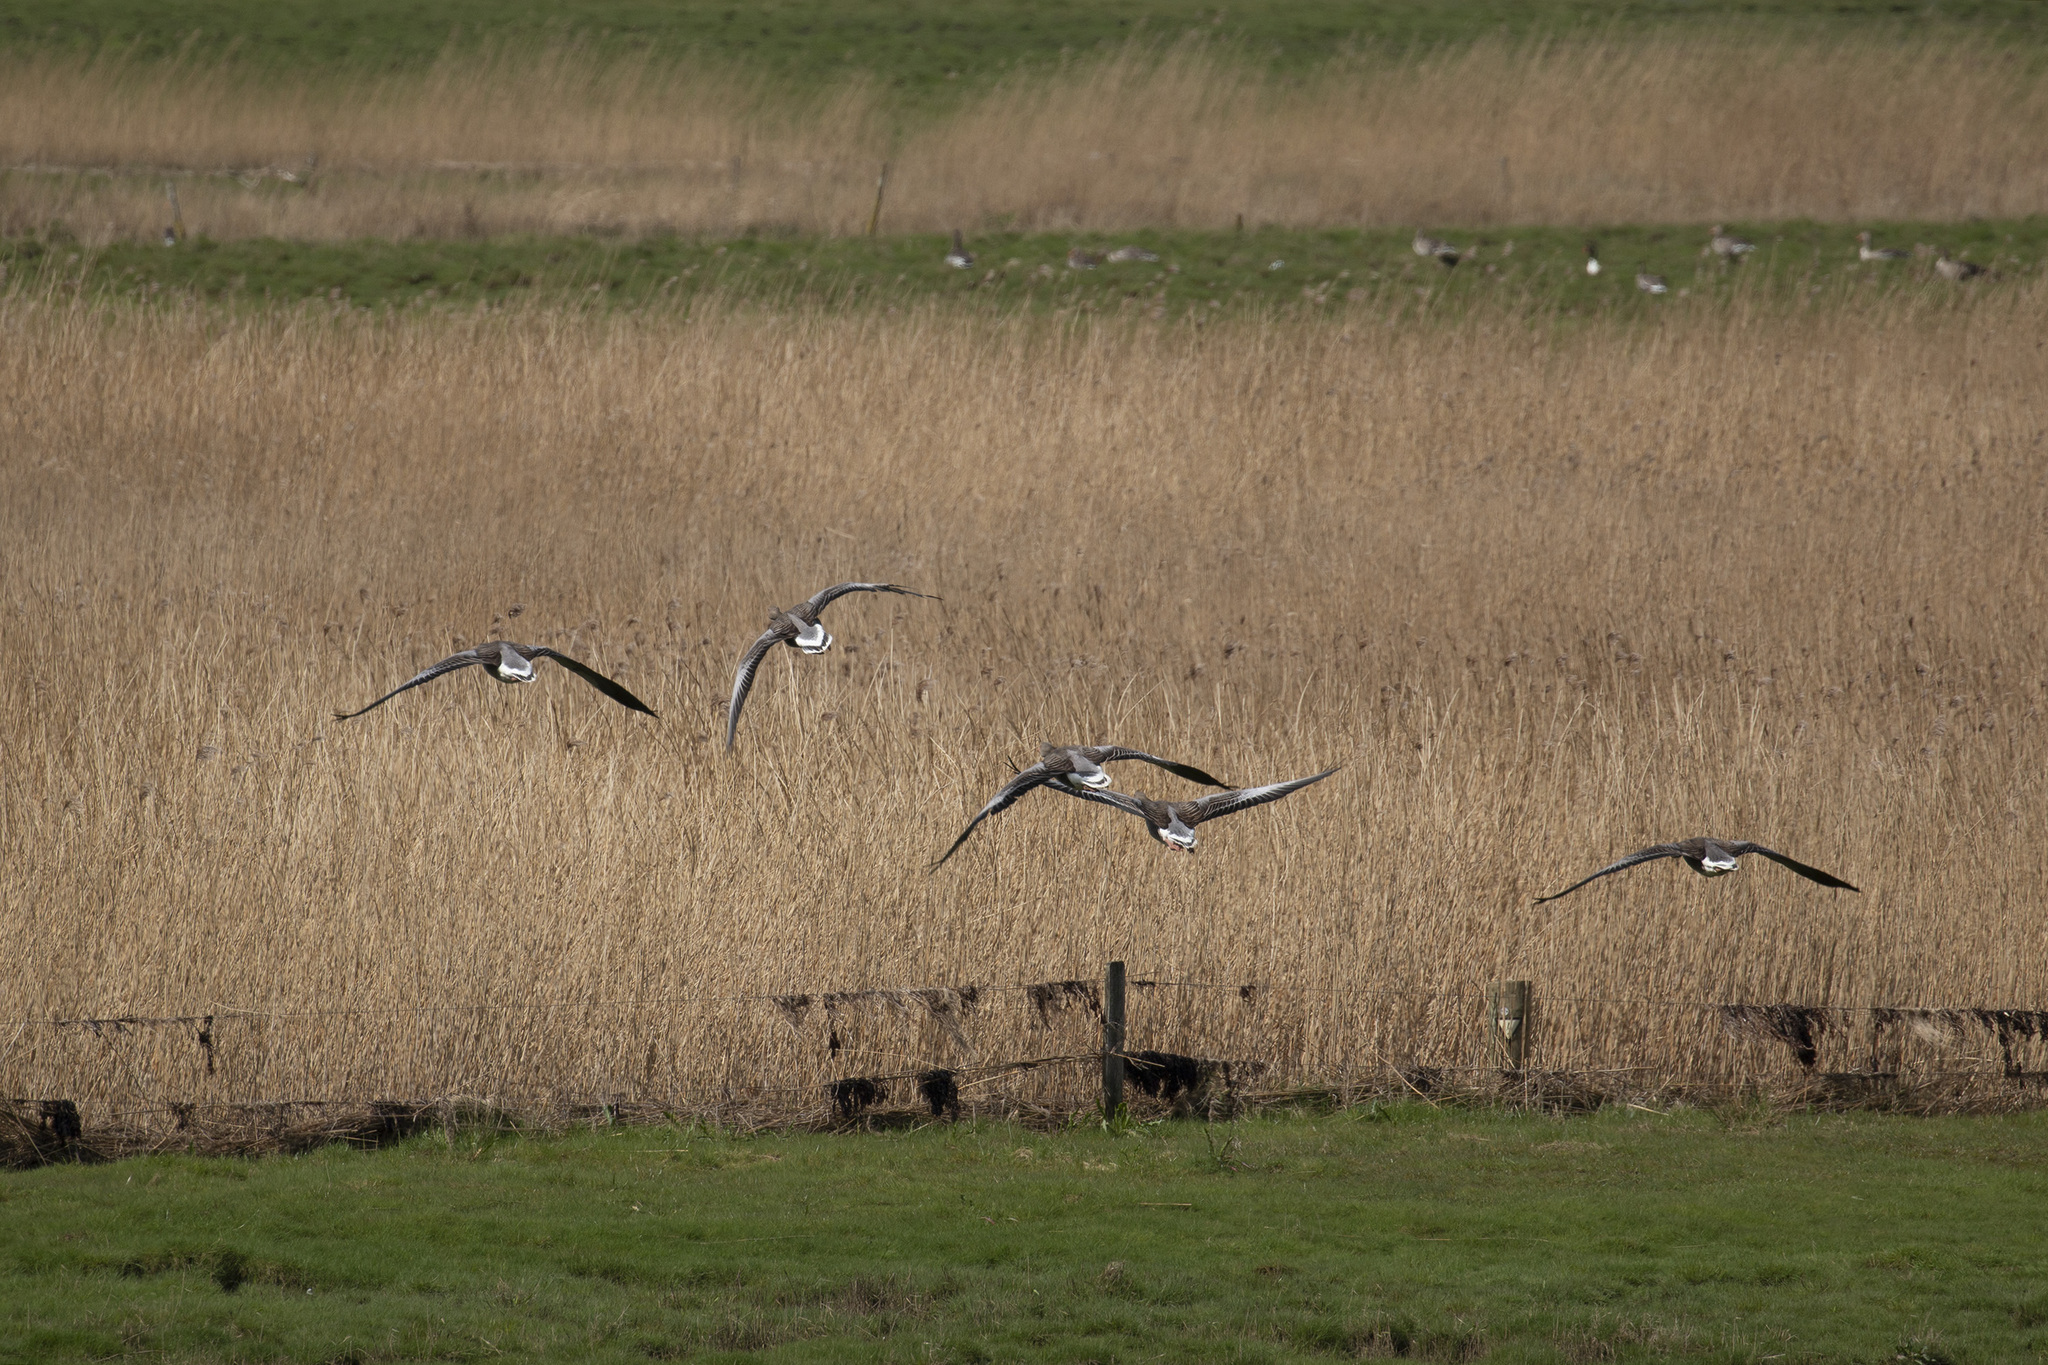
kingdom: Animalia
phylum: Chordata
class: Aves
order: Anseriformes
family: Anatidae
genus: Anser
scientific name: Anser anser
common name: Greylag goose
